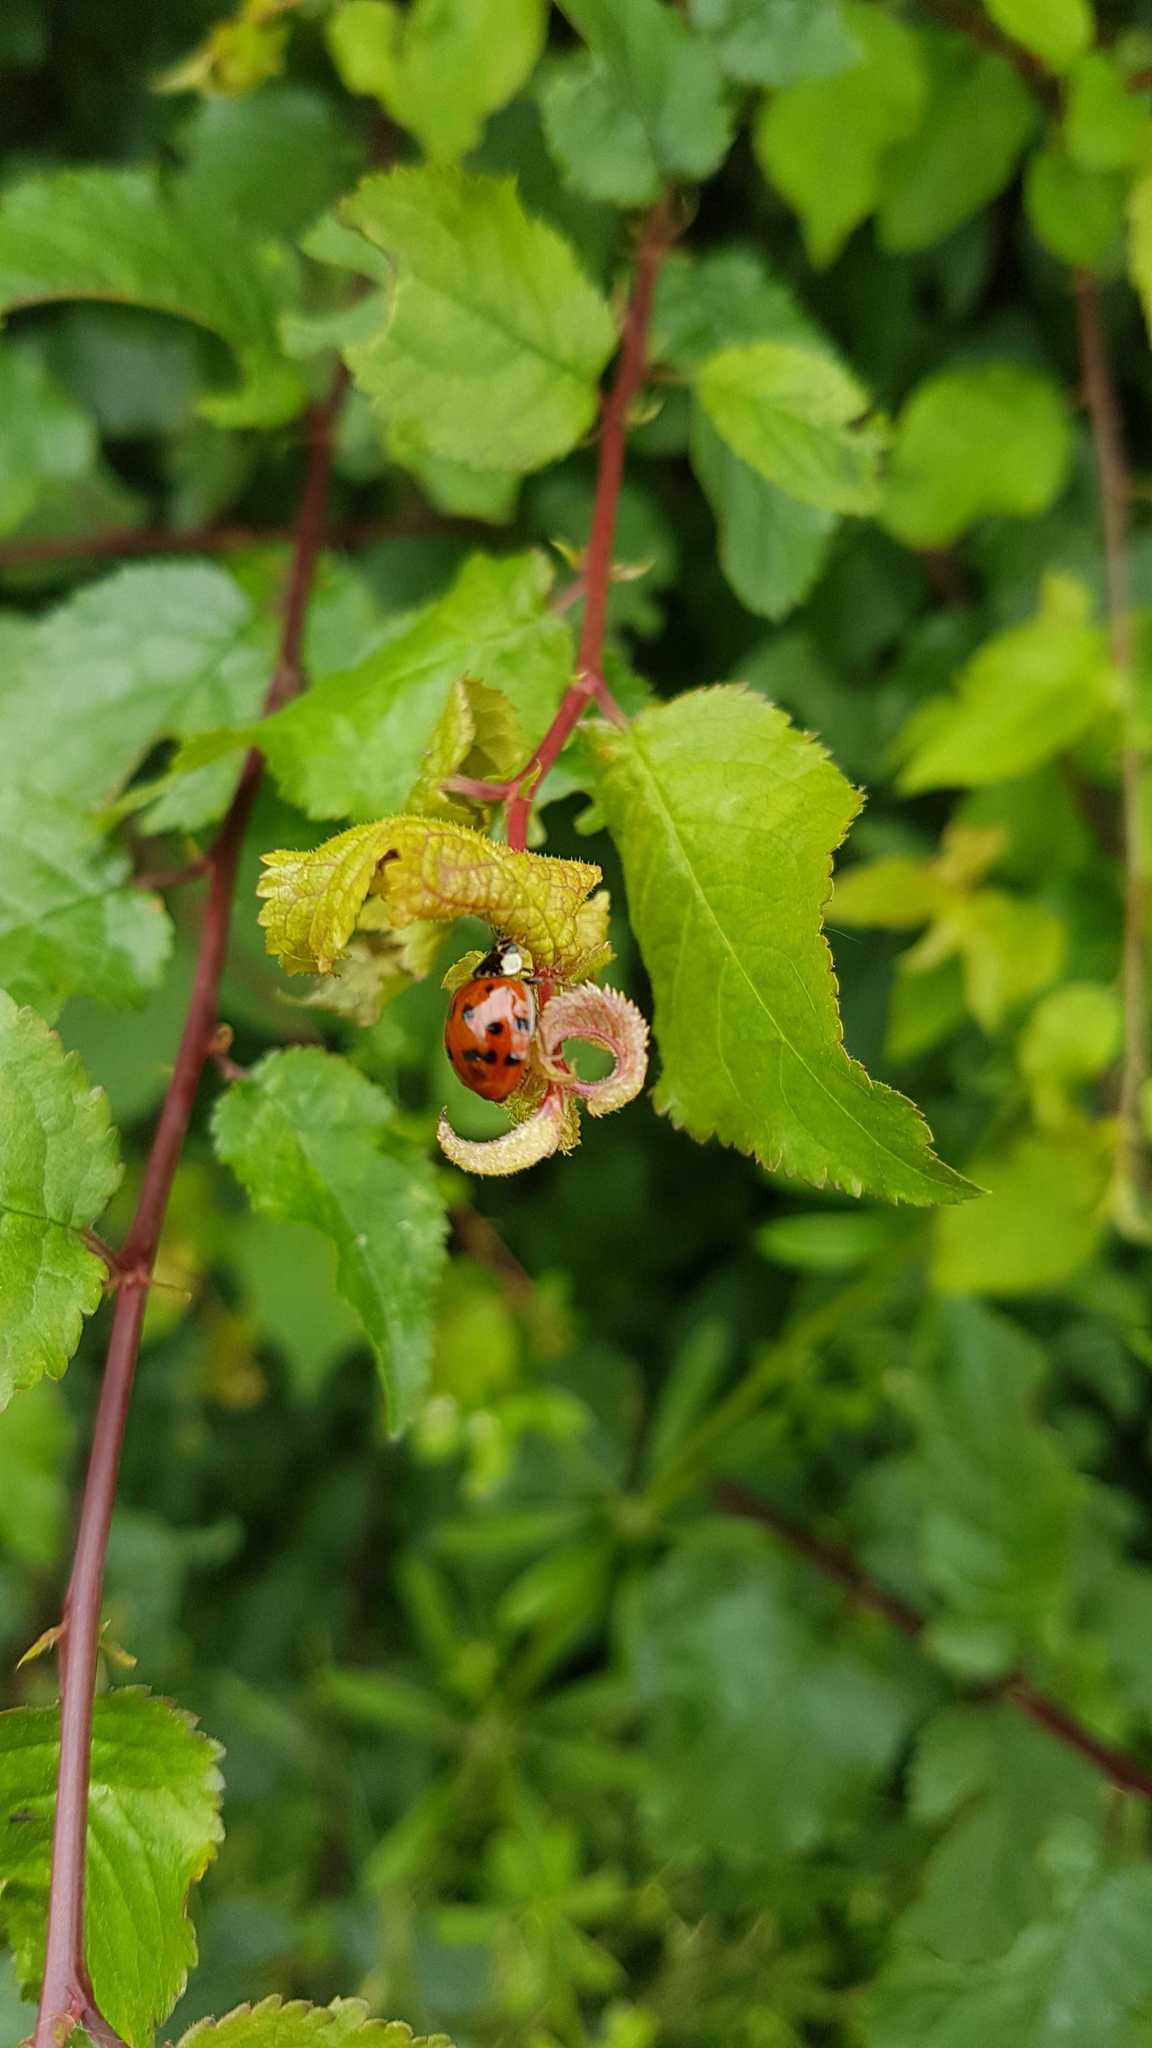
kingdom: Animalia
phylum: Arthropoda
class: Insecta
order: Coleoptera
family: Coccinellidae
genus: Harmonia
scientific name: Harmonia axyridis
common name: Harlequin ladybird
